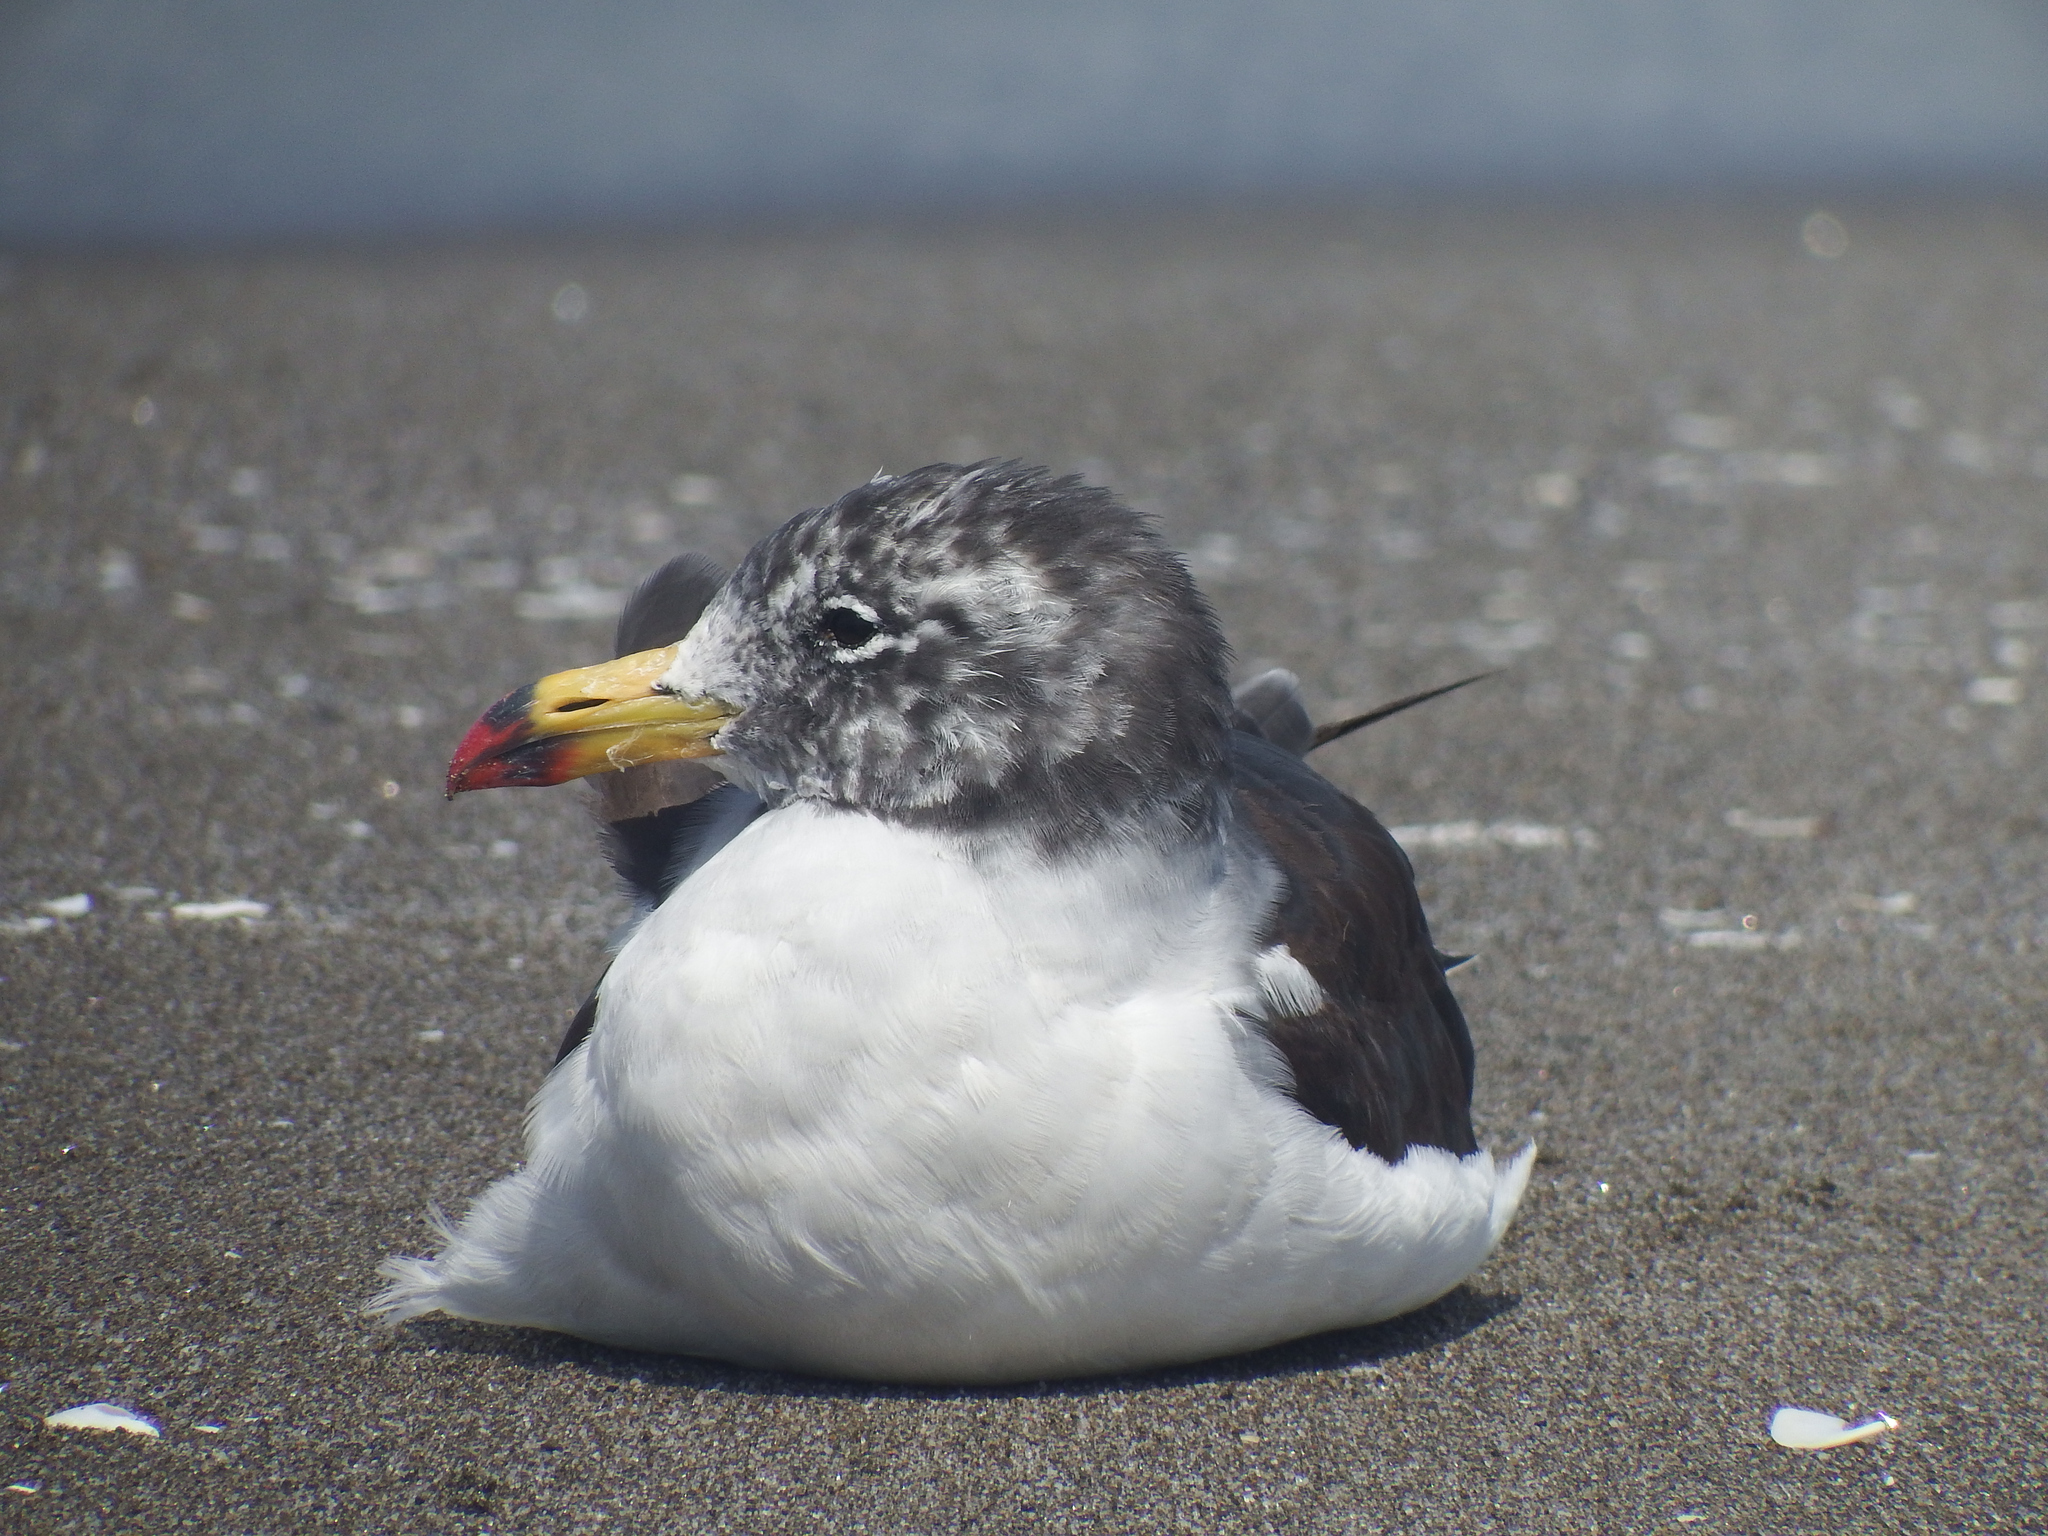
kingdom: Animalia
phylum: Chordata
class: Aves
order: Charadriiformes
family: Laridae
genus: Larus
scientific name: Larus belcheri
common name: Belcher's gull
